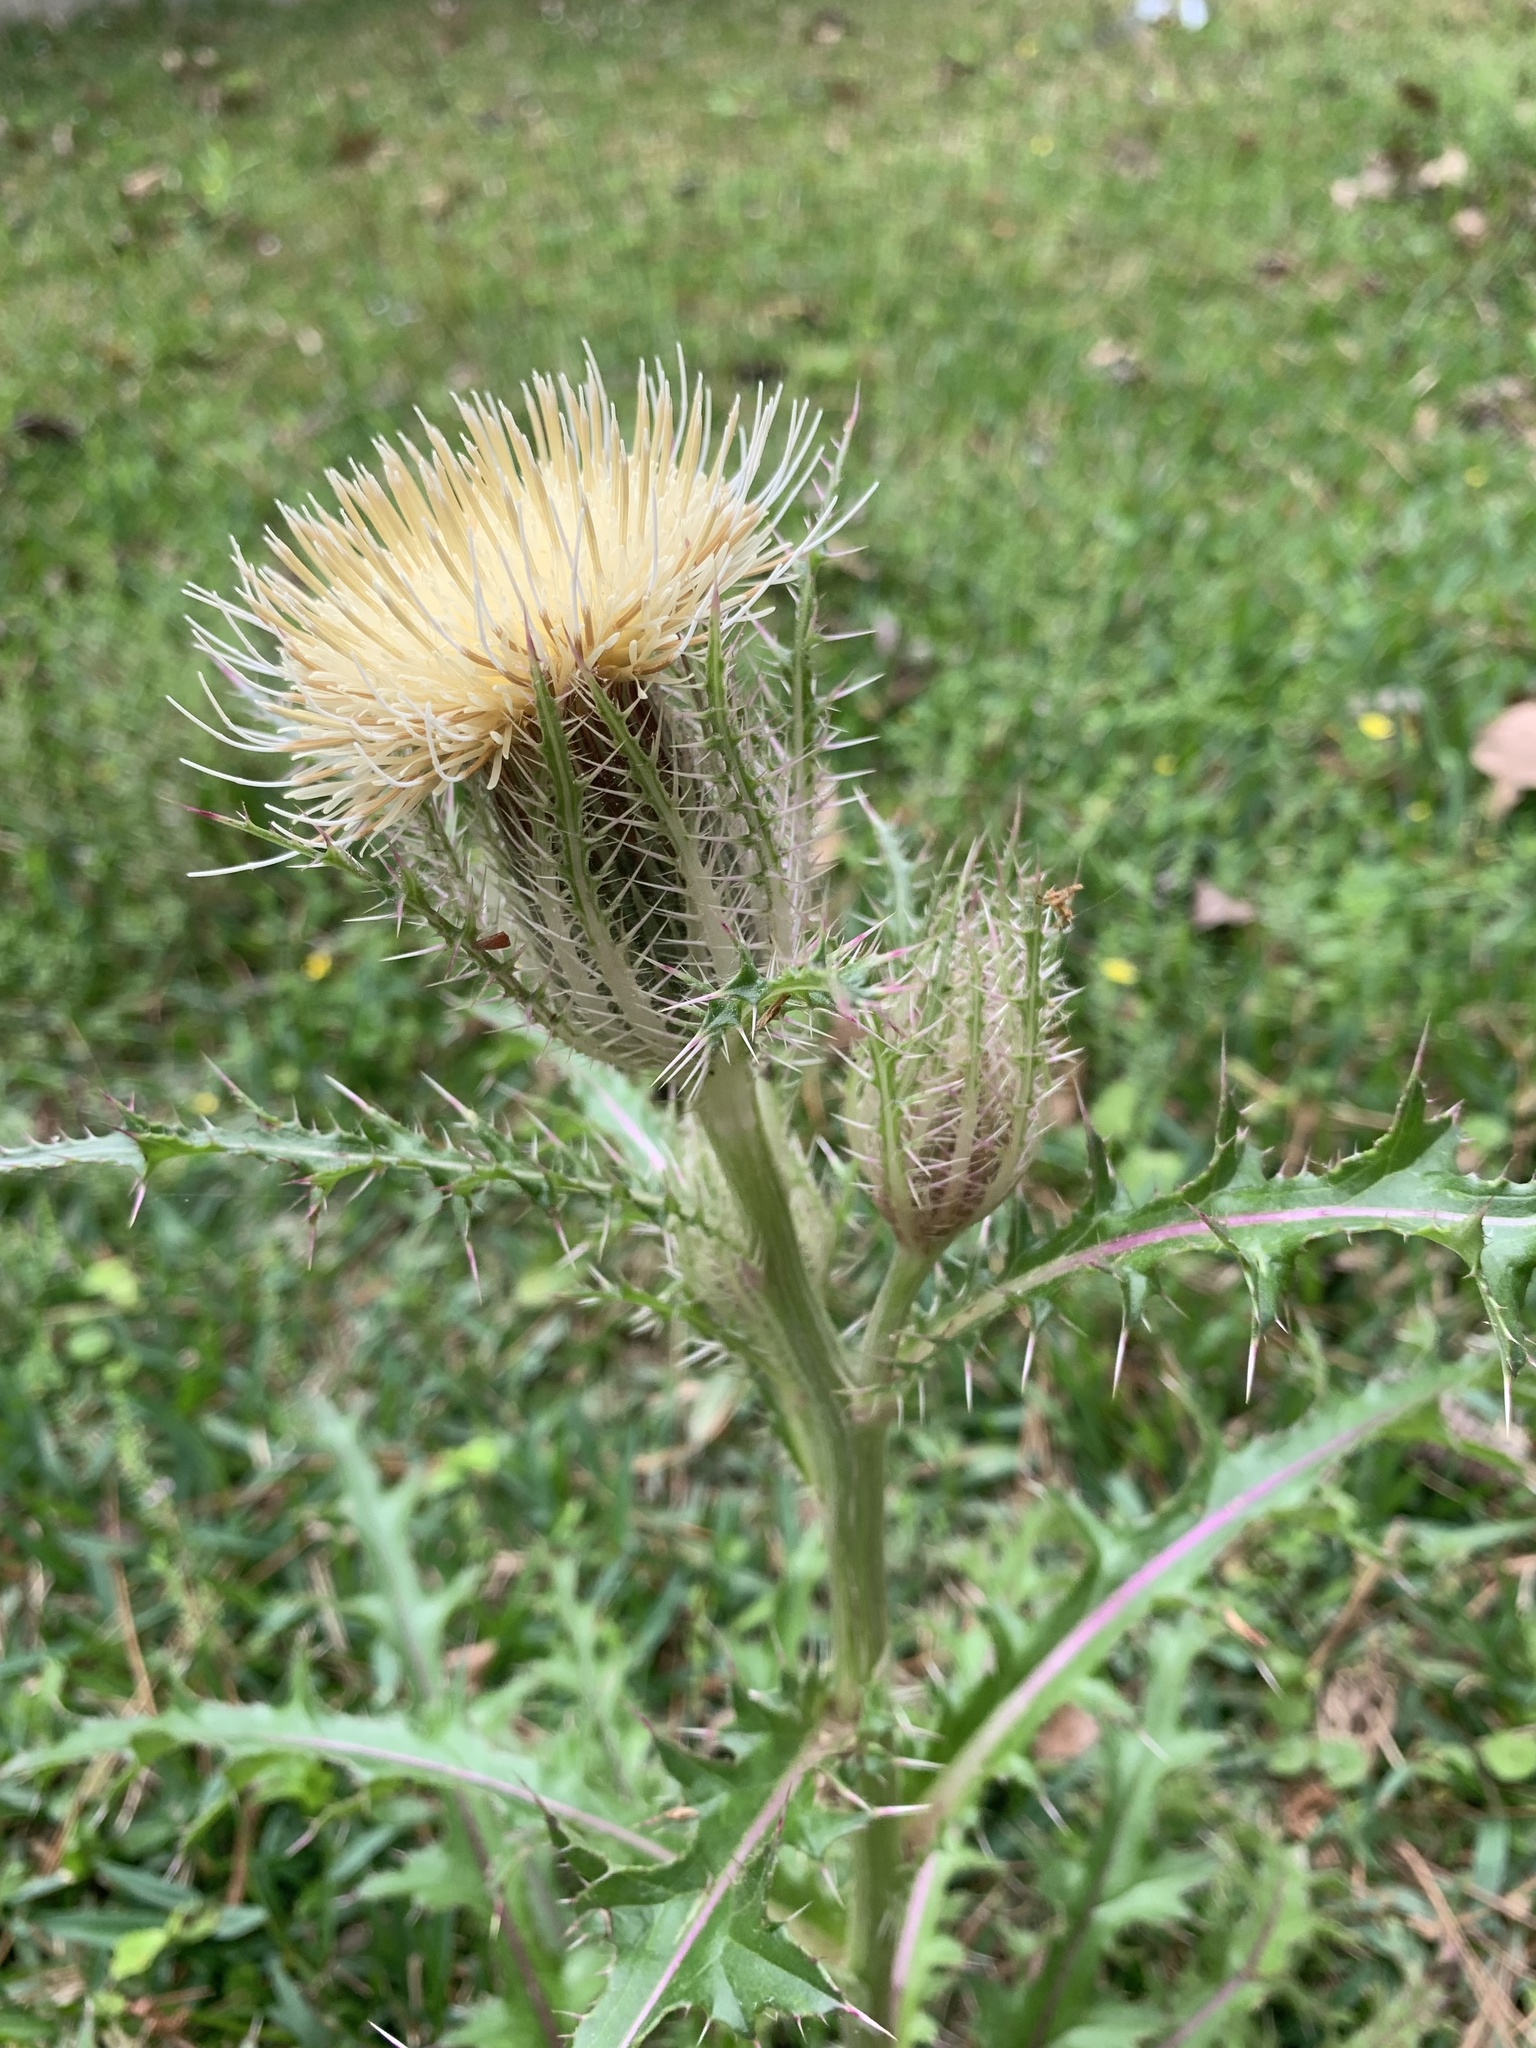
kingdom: Plantae
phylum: Tracheophyta
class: Magnoliopsida
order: Asterales
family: Asteraceae
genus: Cirsium
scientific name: Cirsium horridulum
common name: Bristly thistle
